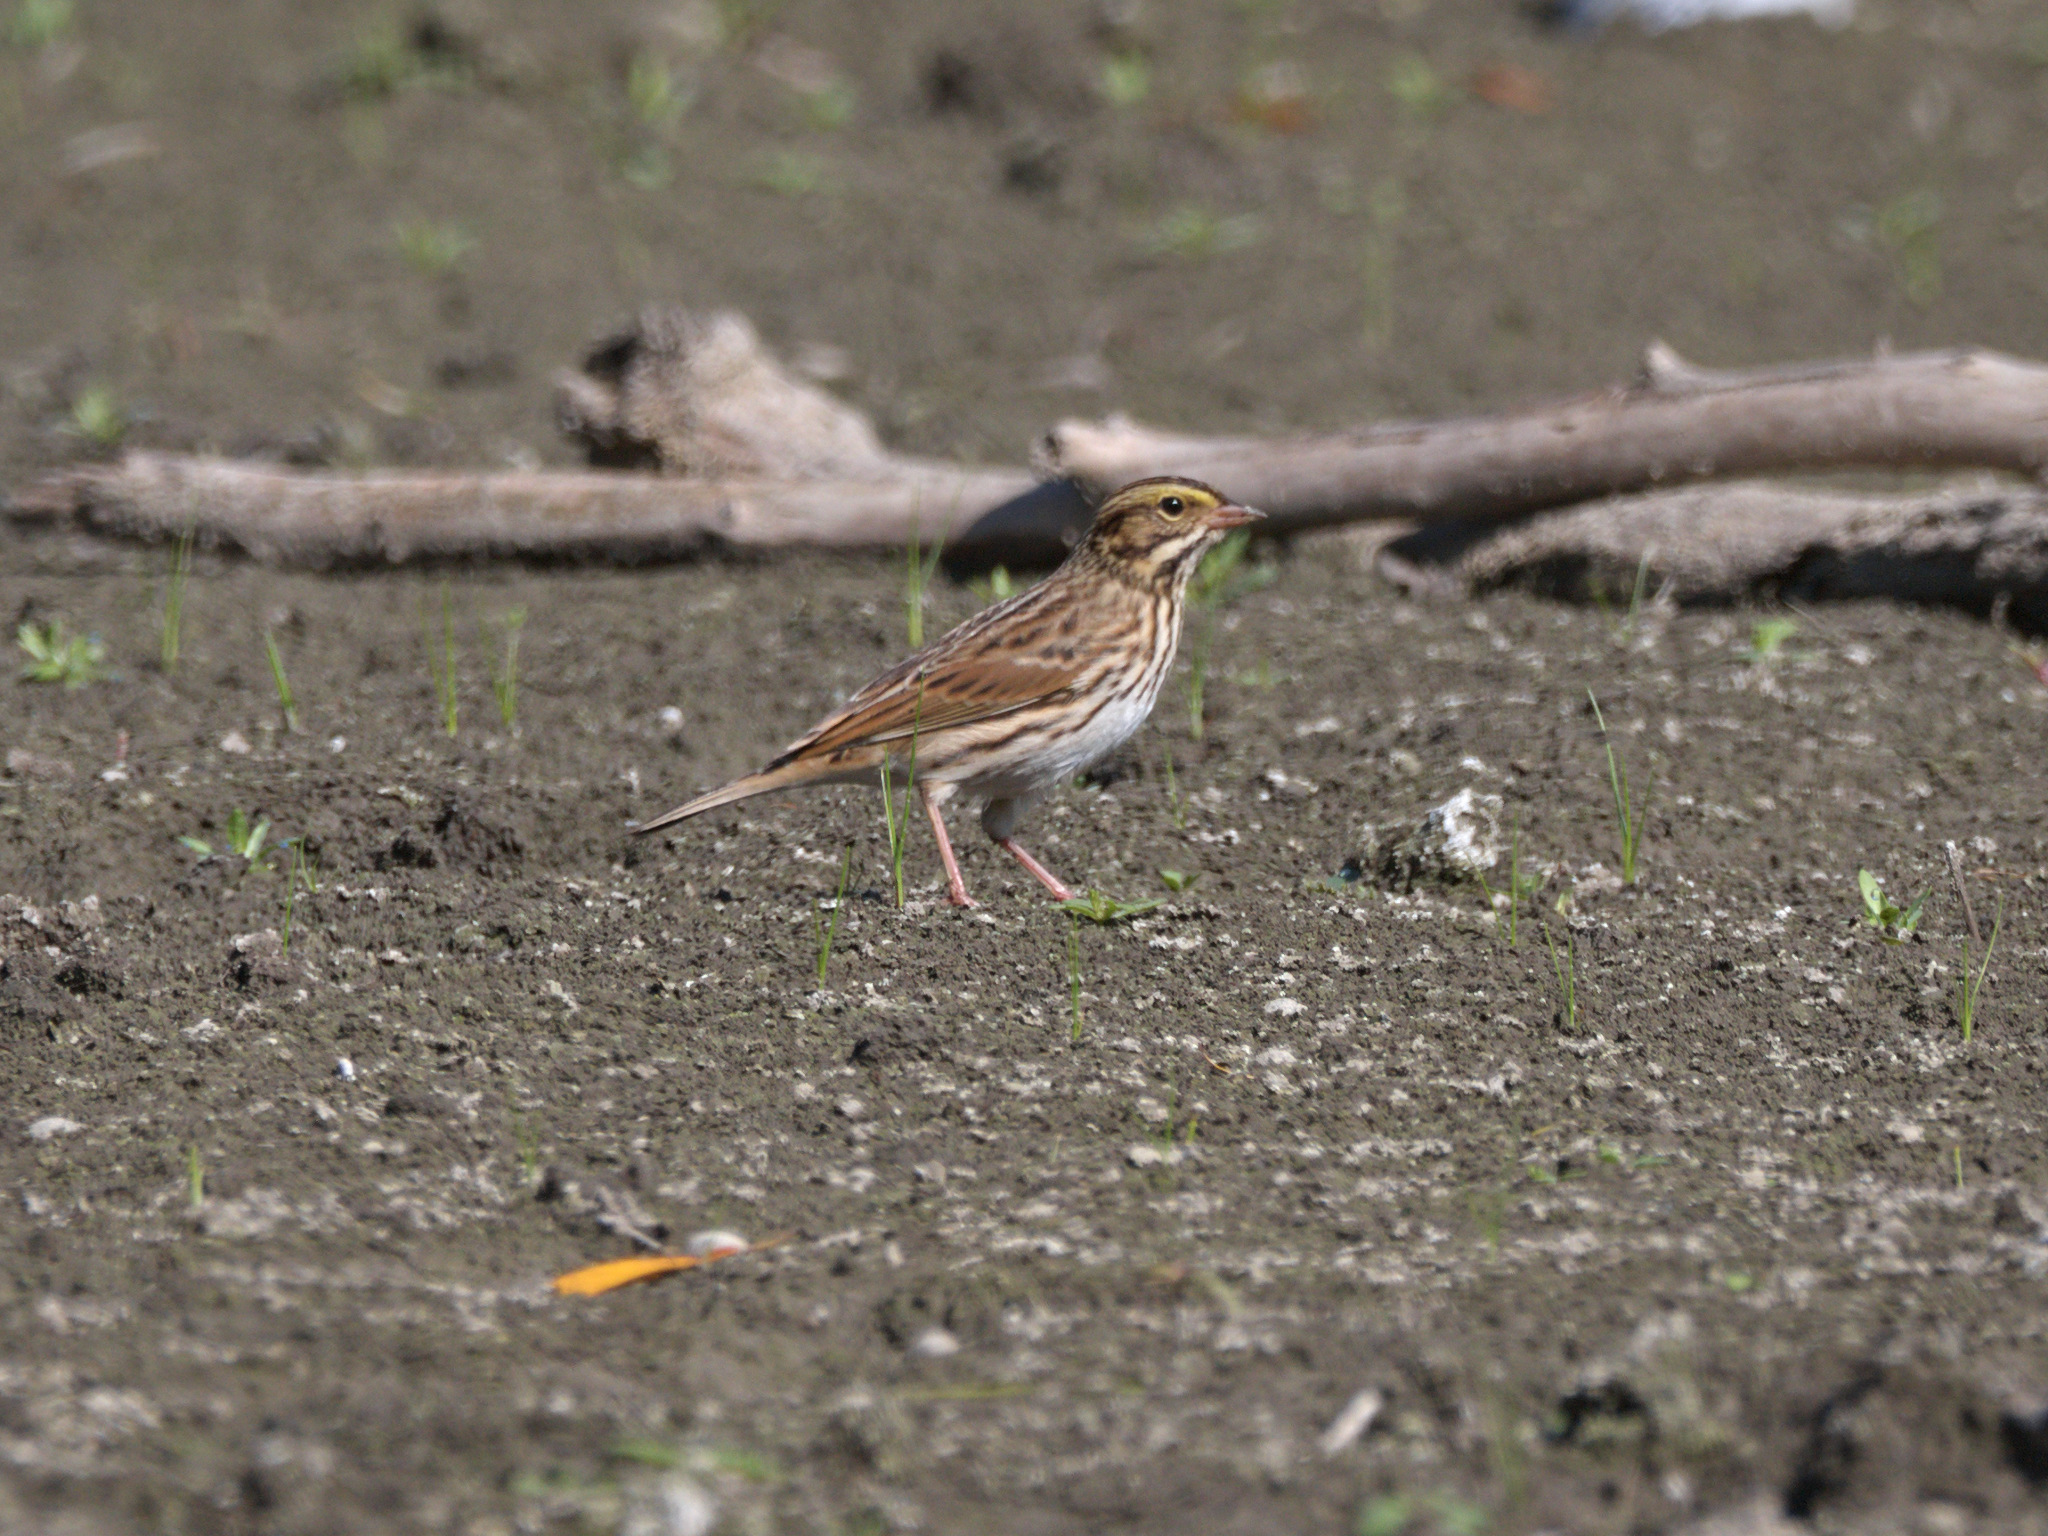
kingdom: Animalia
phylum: Chordata
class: Aves
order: Passeriformes
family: Passerellidae
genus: Passerculus
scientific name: Passerculus sandwichensis
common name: Savannah sparrow
